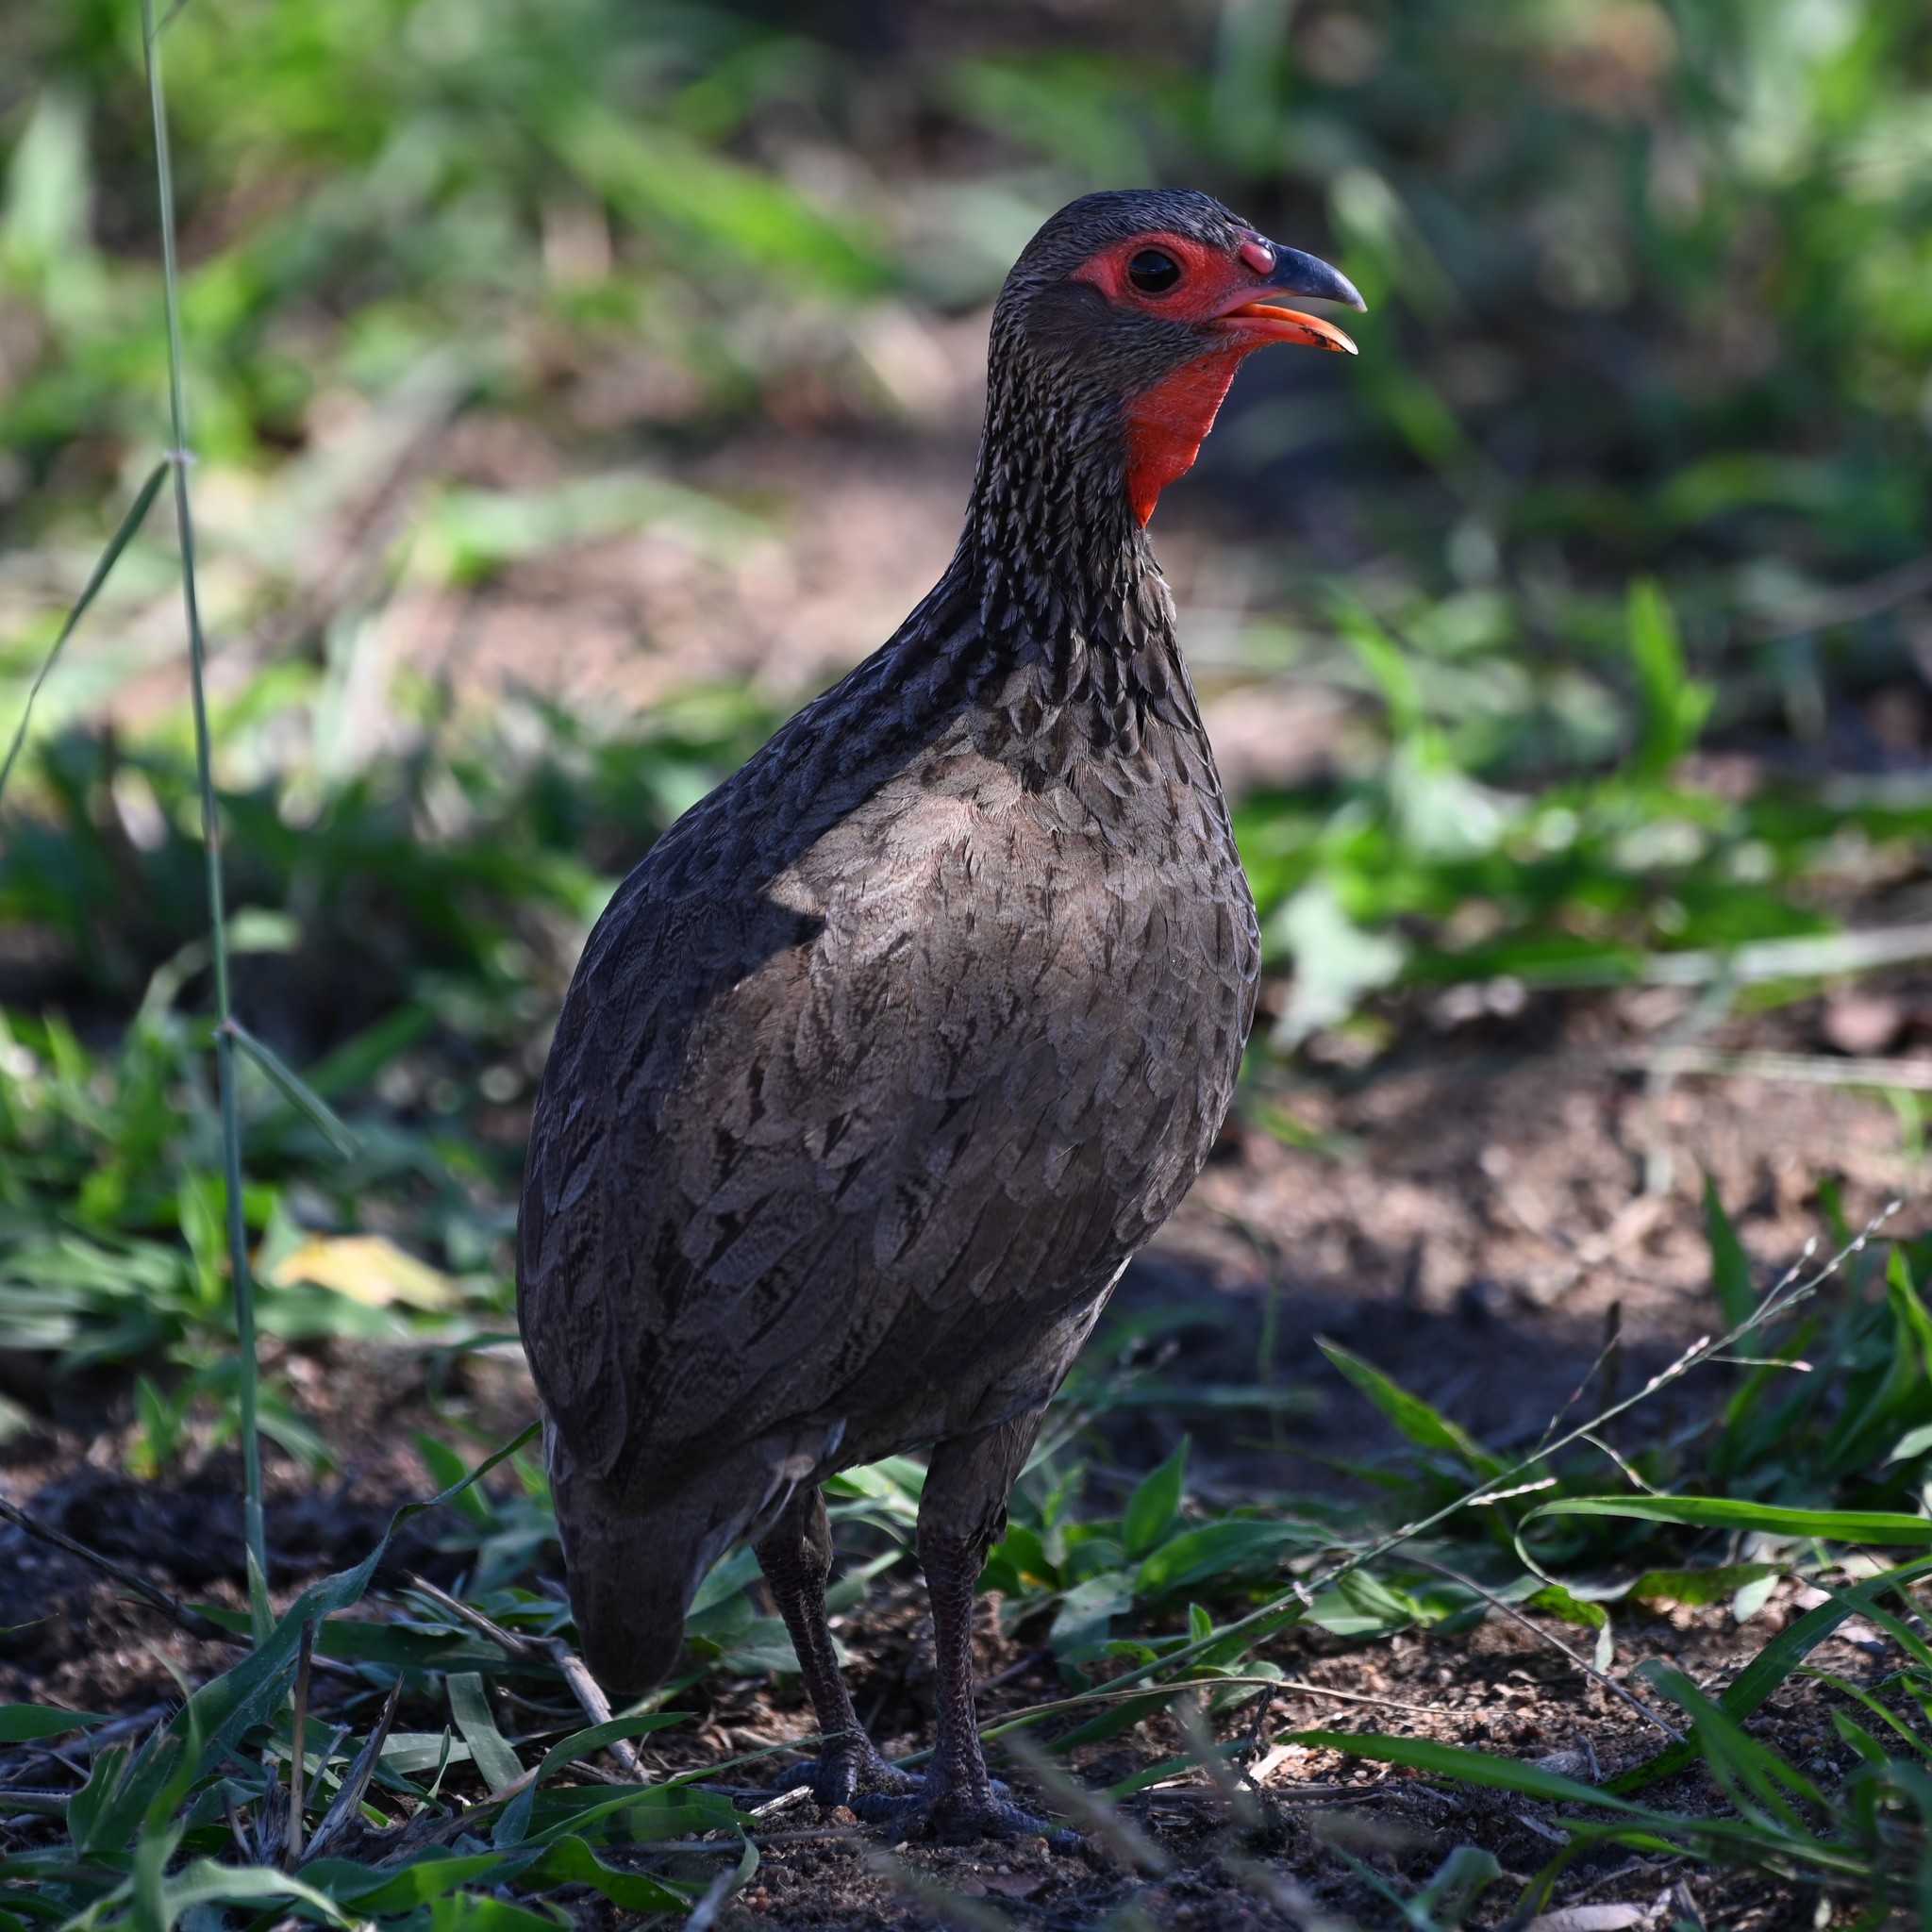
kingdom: Animalia
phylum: Chordata
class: Aves
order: Galliformes
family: Phasianidae
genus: Pternistis
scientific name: Pternistis swainsonii
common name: Swainson's spurfowl
